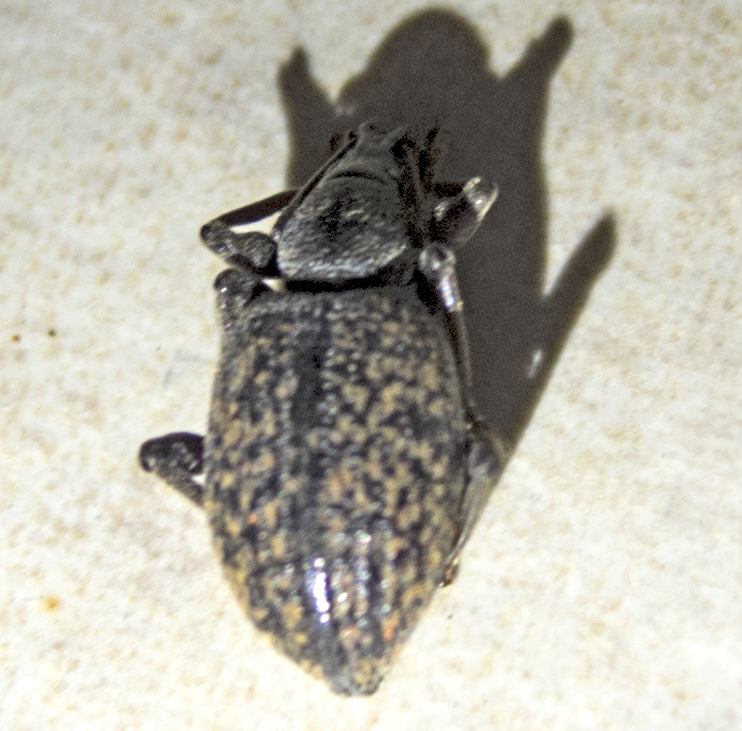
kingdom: Animalia
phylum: Arthropoda
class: Insecta
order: Coleoptera
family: Curculionidae
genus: Otiorhynchus
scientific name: Otiorhynchus aurifer
